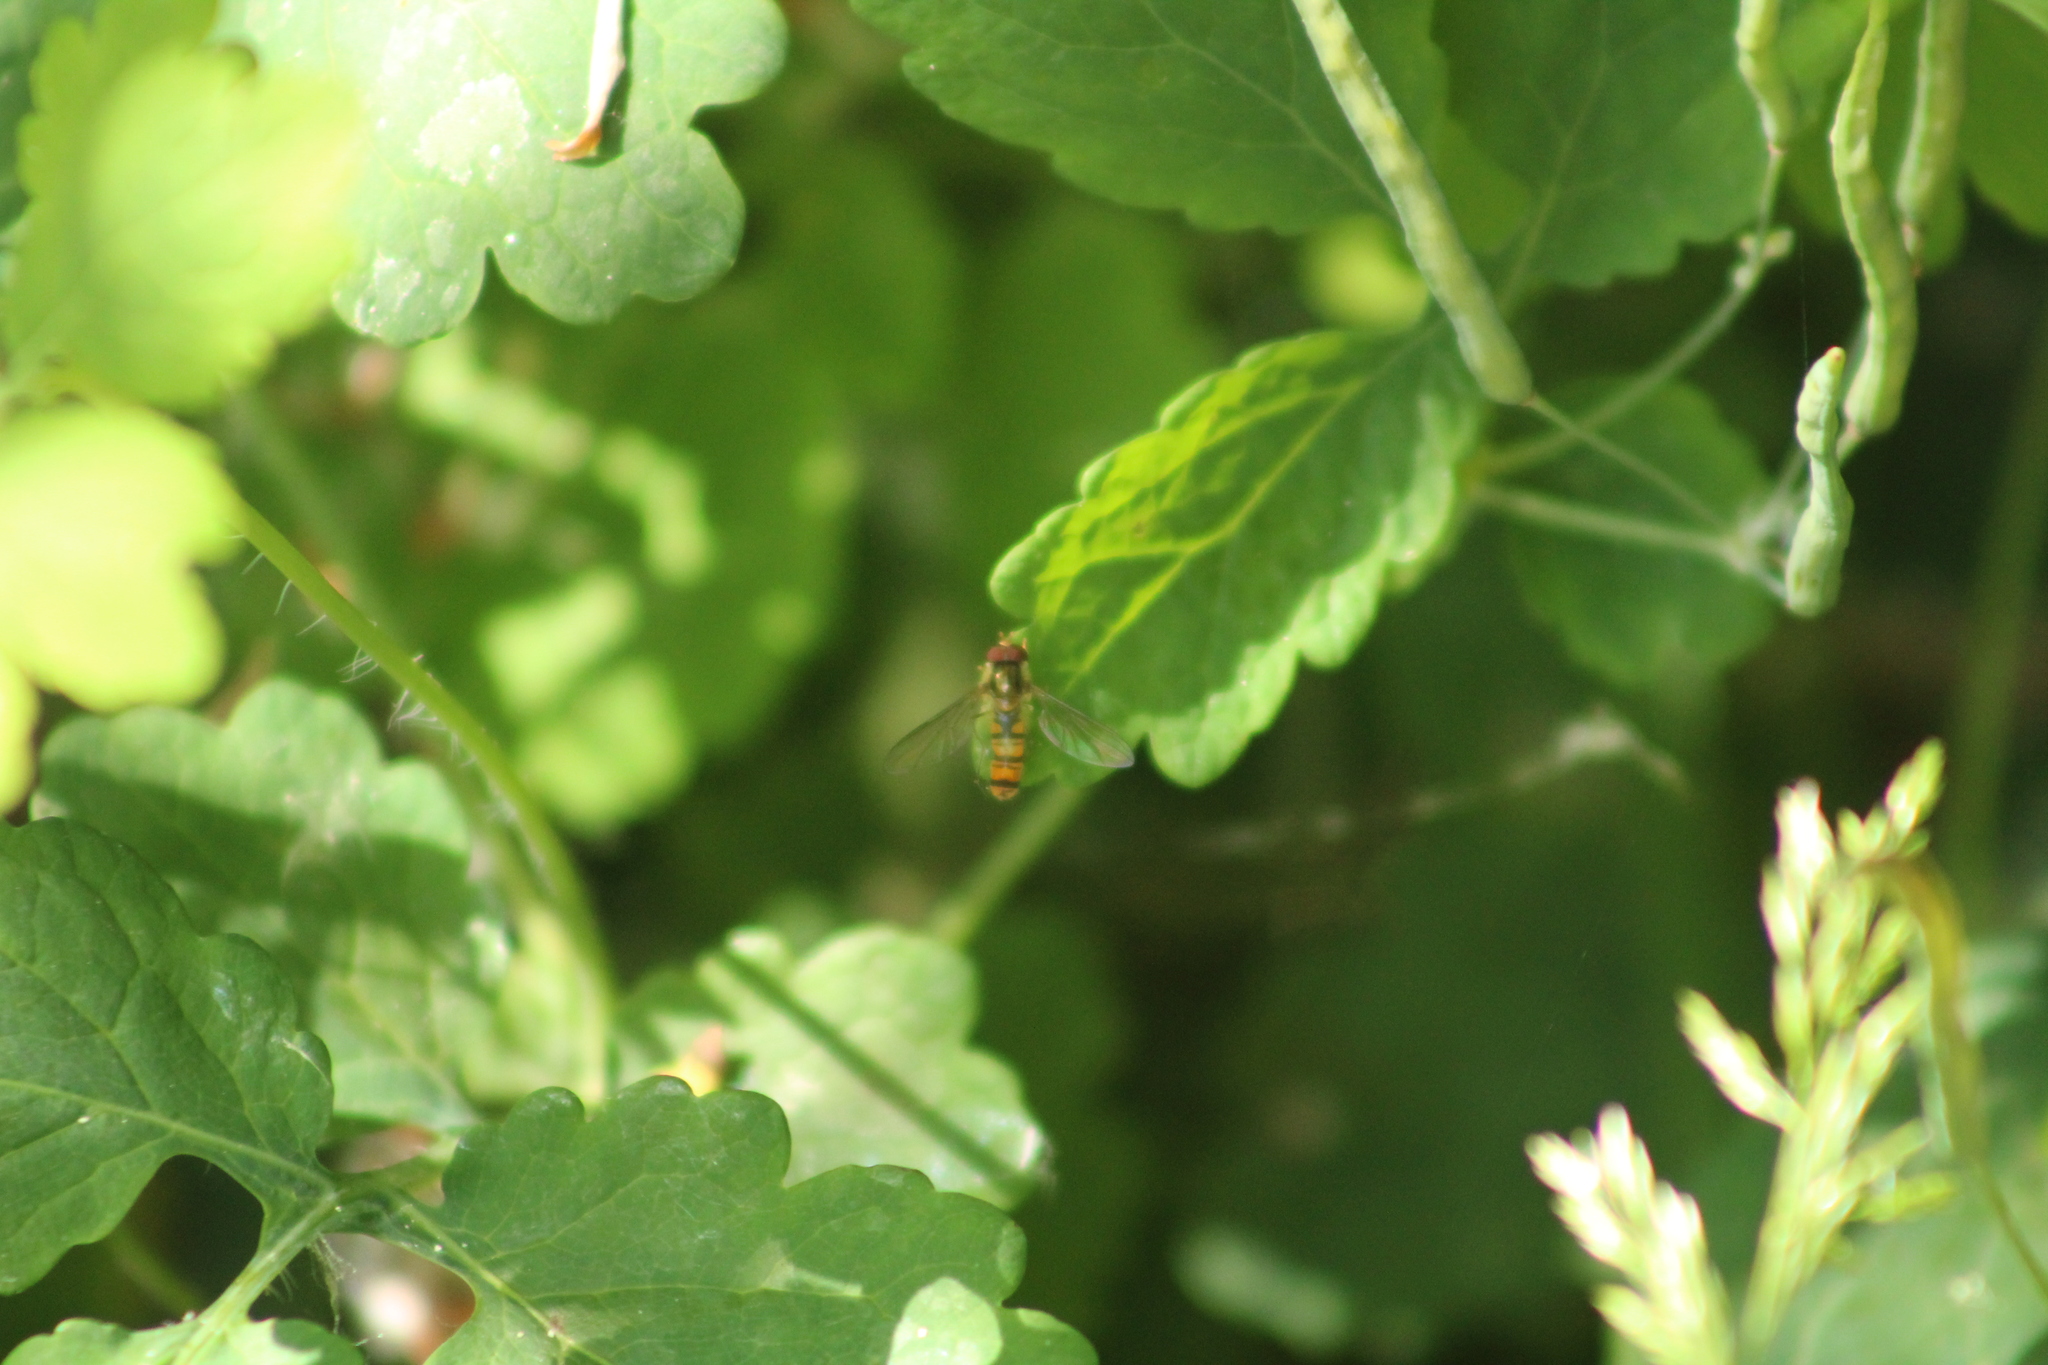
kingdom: Animalia
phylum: Arthropoda
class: Insecta
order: Diptera
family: Syrphidae
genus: Episyrphus
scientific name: Episyrphus balteatus
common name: Marmalade hoverfly
